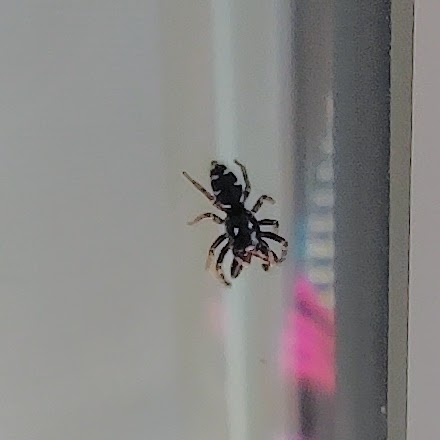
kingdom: Animalia
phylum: Arthropoda
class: Arachnida
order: Araneae
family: Salticidae
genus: Salticus
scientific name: Salticus scenicus
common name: Zebra jumper
